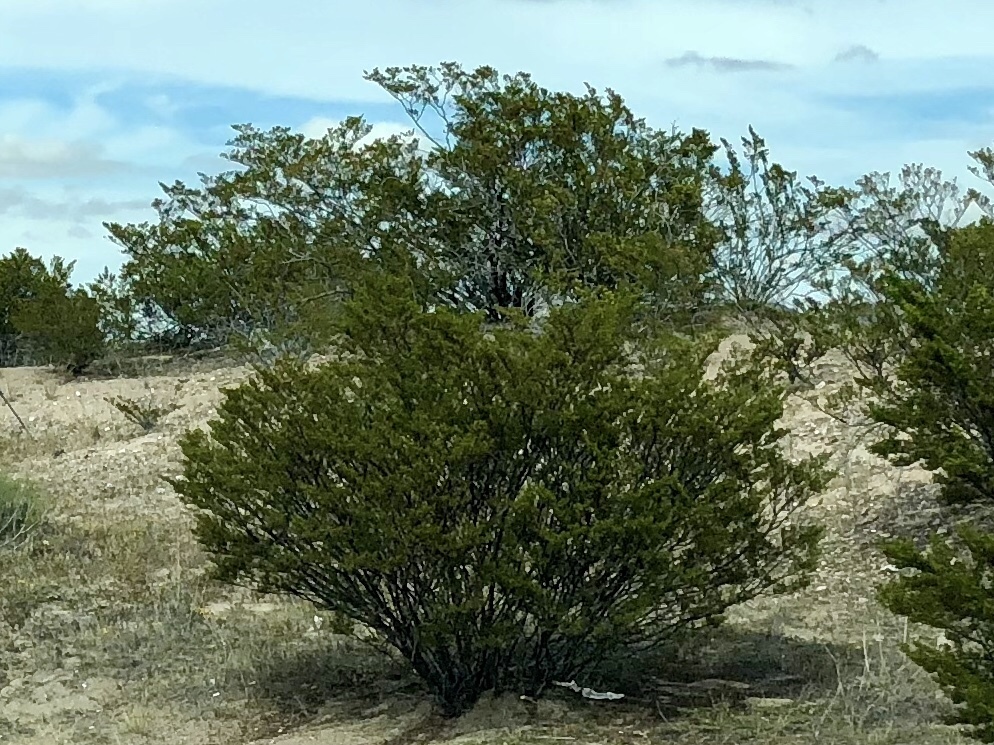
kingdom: Plantae
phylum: Tracheophyta
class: Magnoliopsida
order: Zygophyllales
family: Zygophyllaceae
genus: Larrea
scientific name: Larrea tridentata
